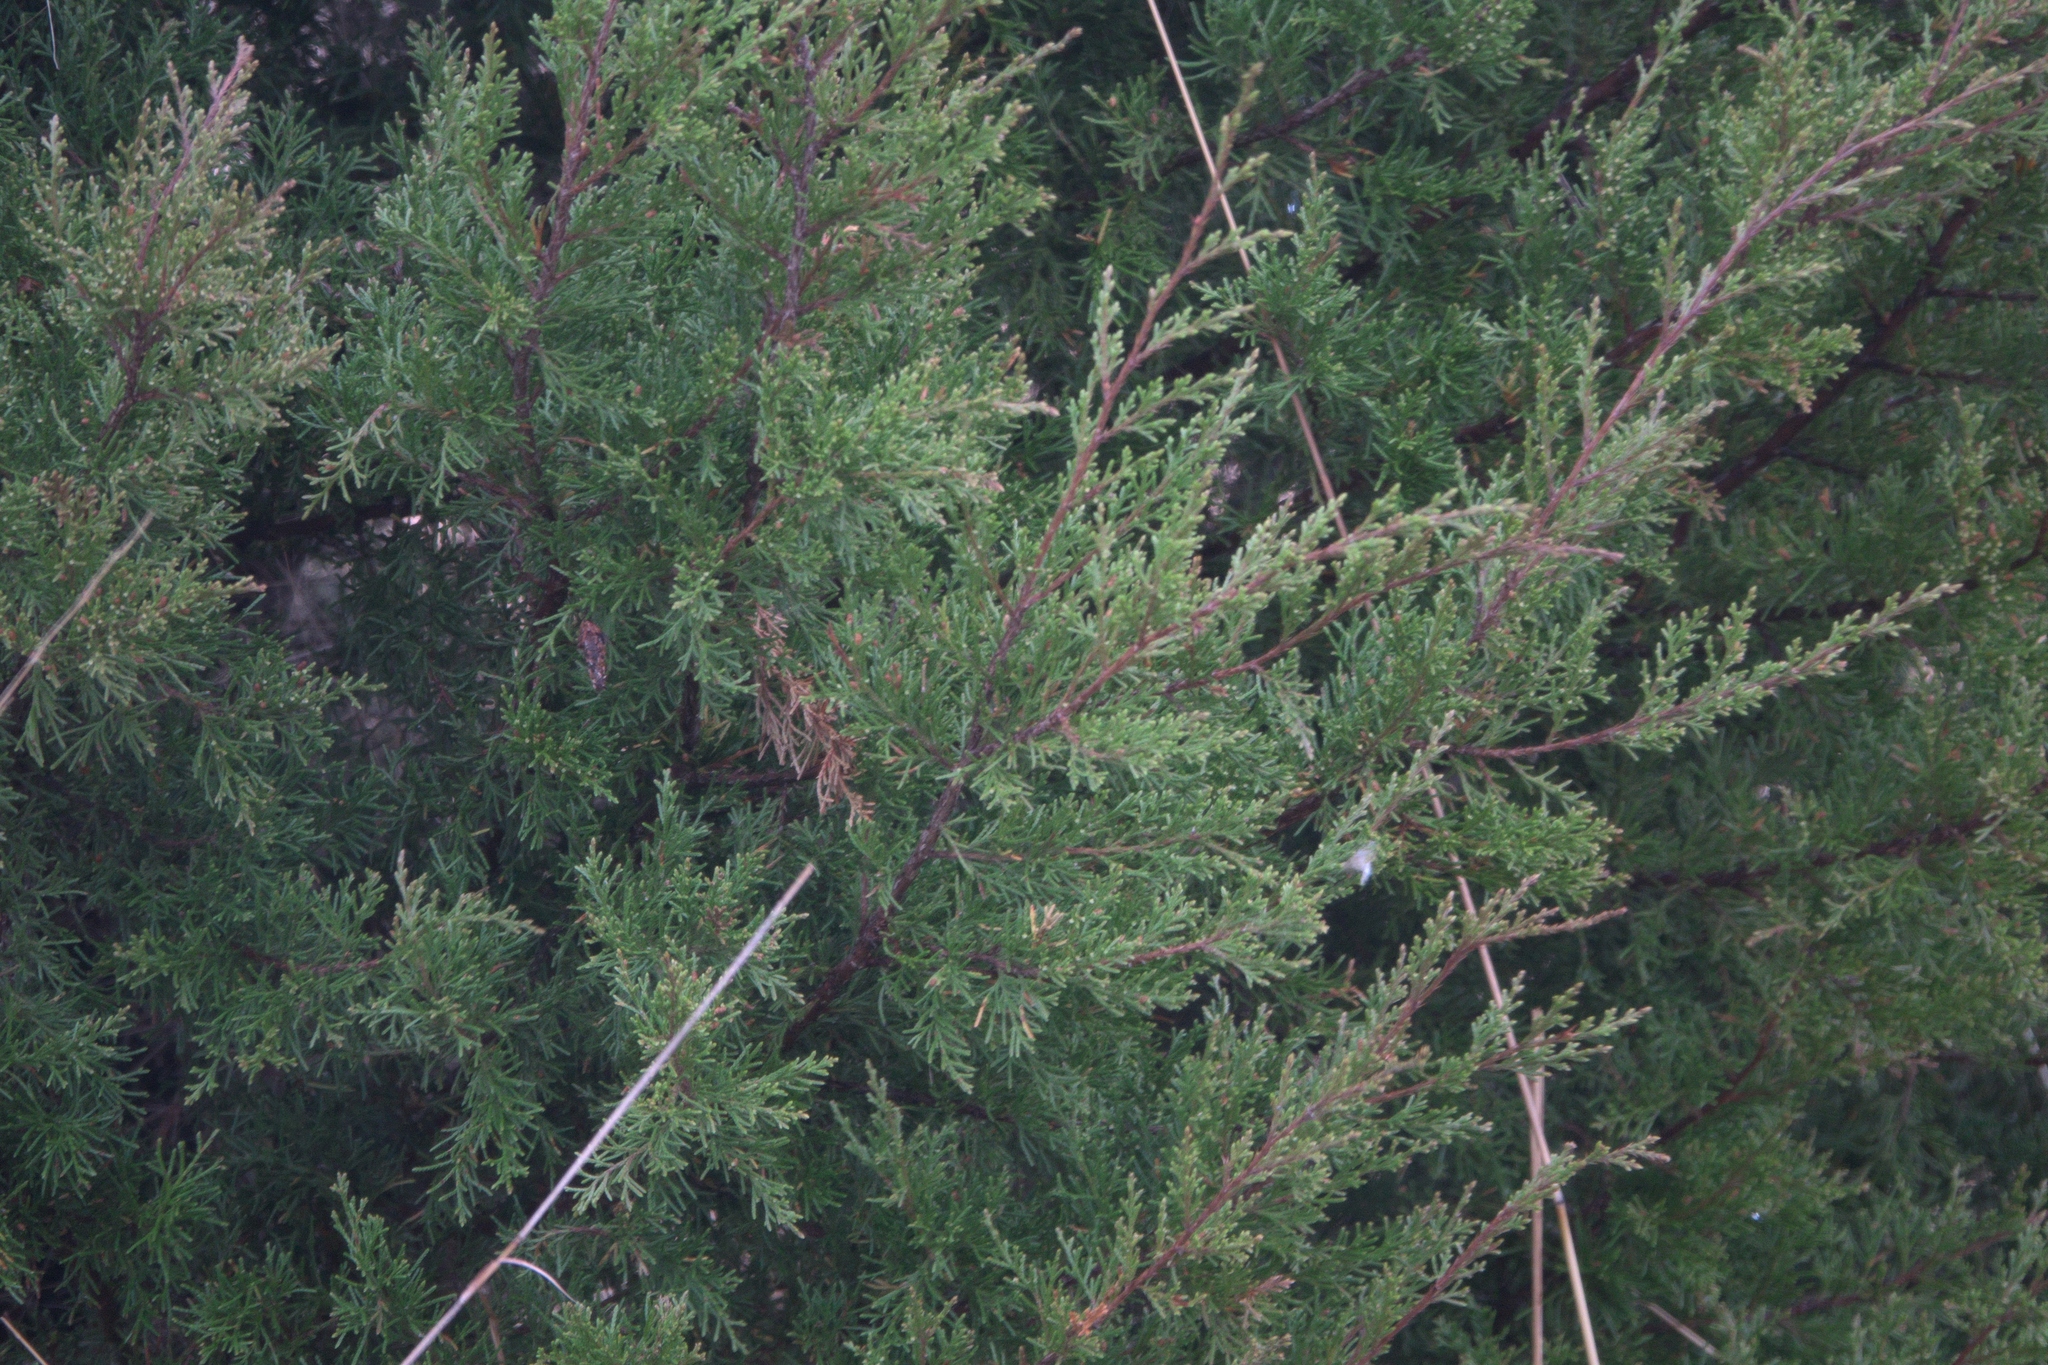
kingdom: Plantae
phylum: Tracheophyta
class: Pinopsida
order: Pinales
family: Cupressaceae
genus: Juniperus
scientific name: Juniperus virginiana
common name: Red juniper
